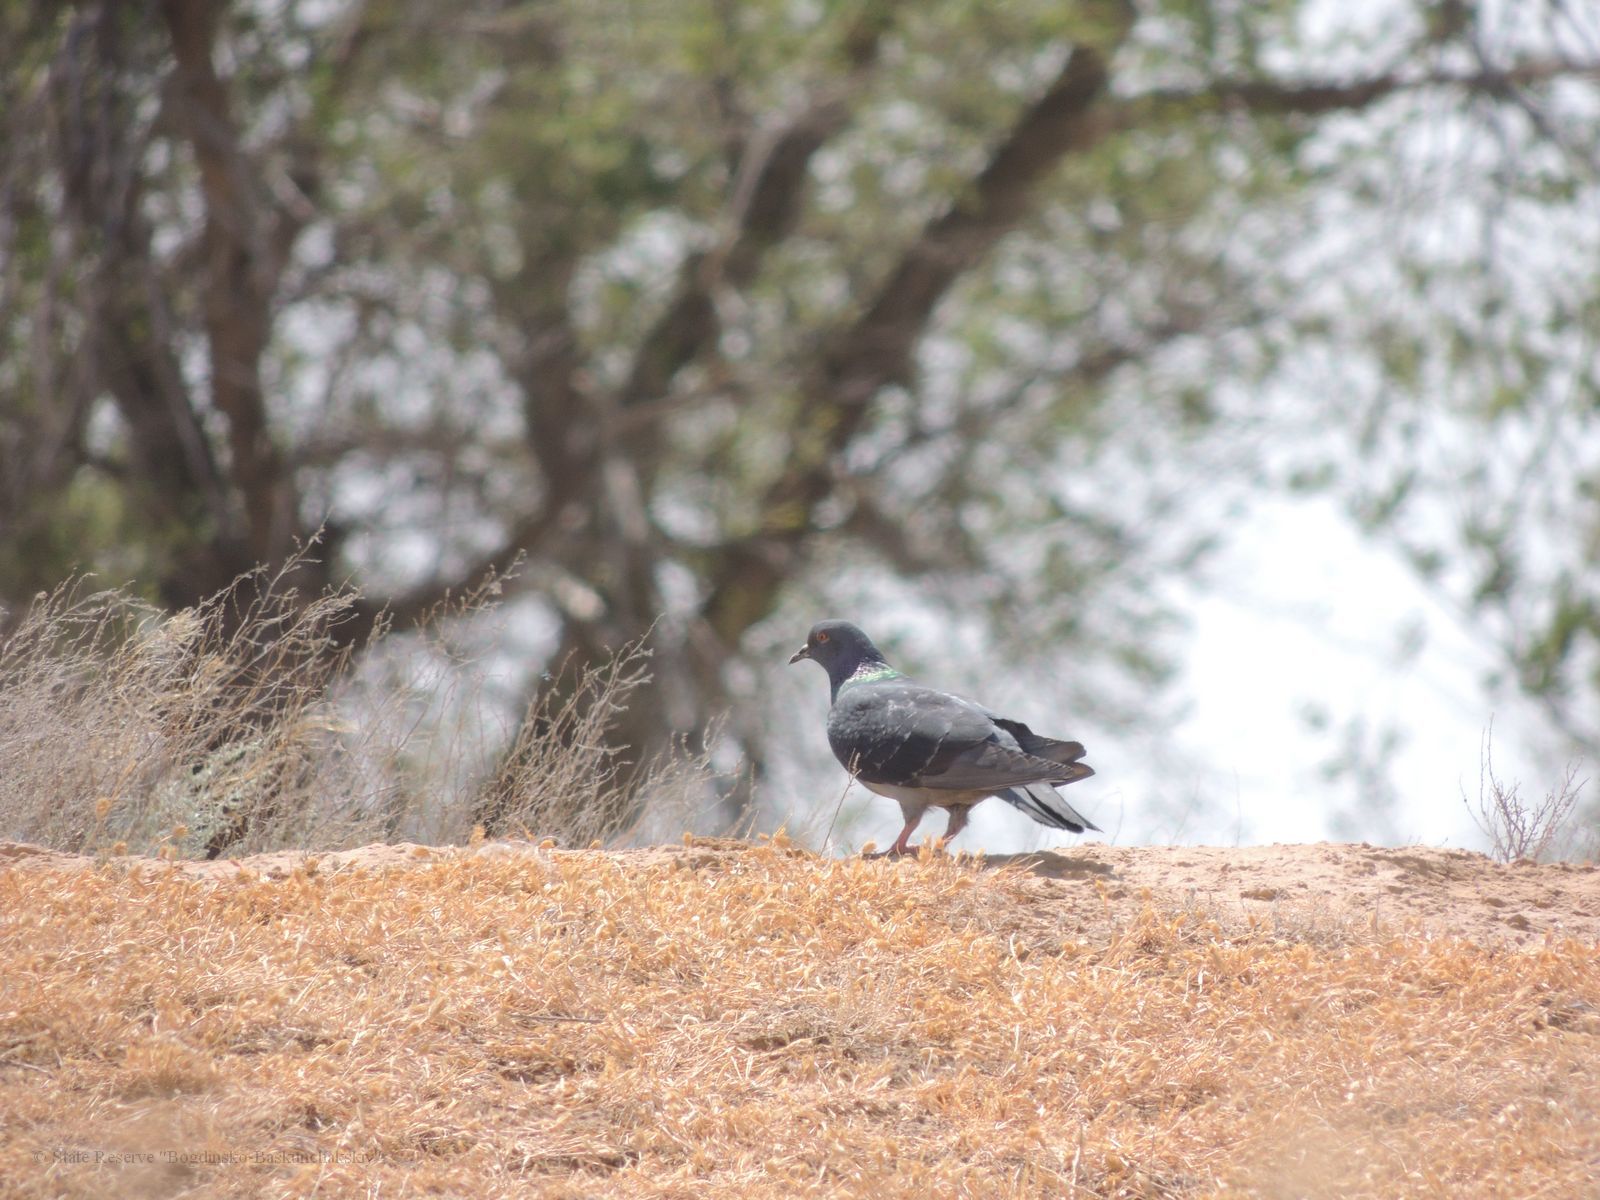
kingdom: Animalia
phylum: Chordata
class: Aves
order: Columbiformes
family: Columbidae
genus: Columba
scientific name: Columba livia
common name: Rock pigeon
